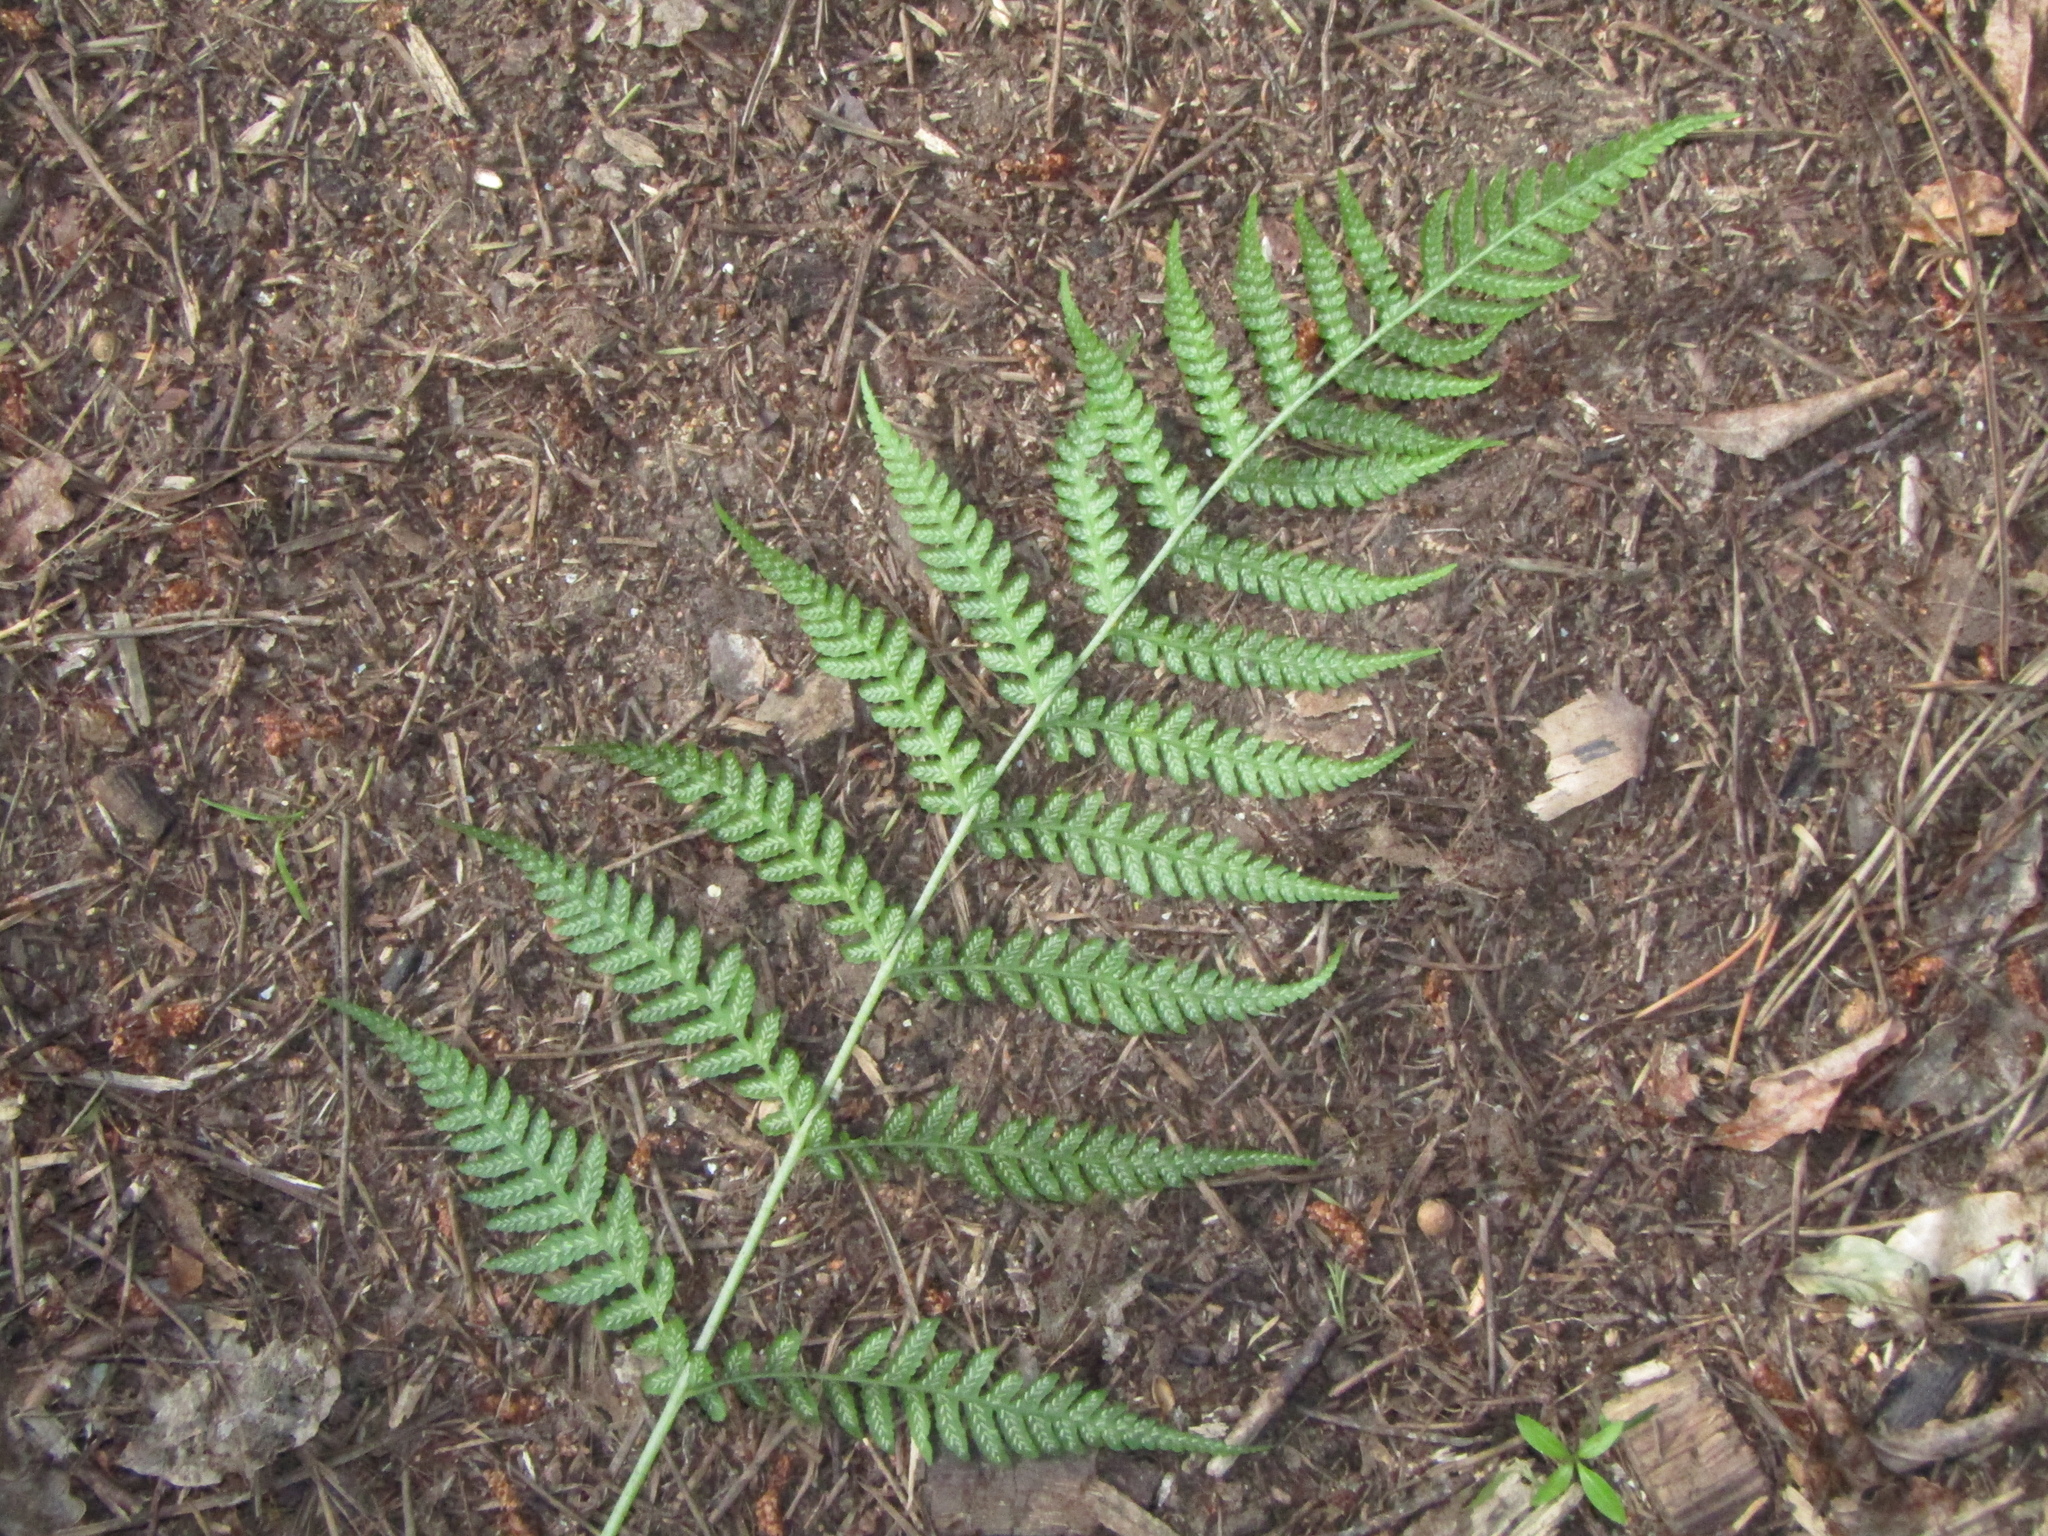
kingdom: Plantae
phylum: Tracheophyta
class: Polypodiopsida
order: Polypodiales
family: Athyriaceae
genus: Diplazium
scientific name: Diplazium congruum
